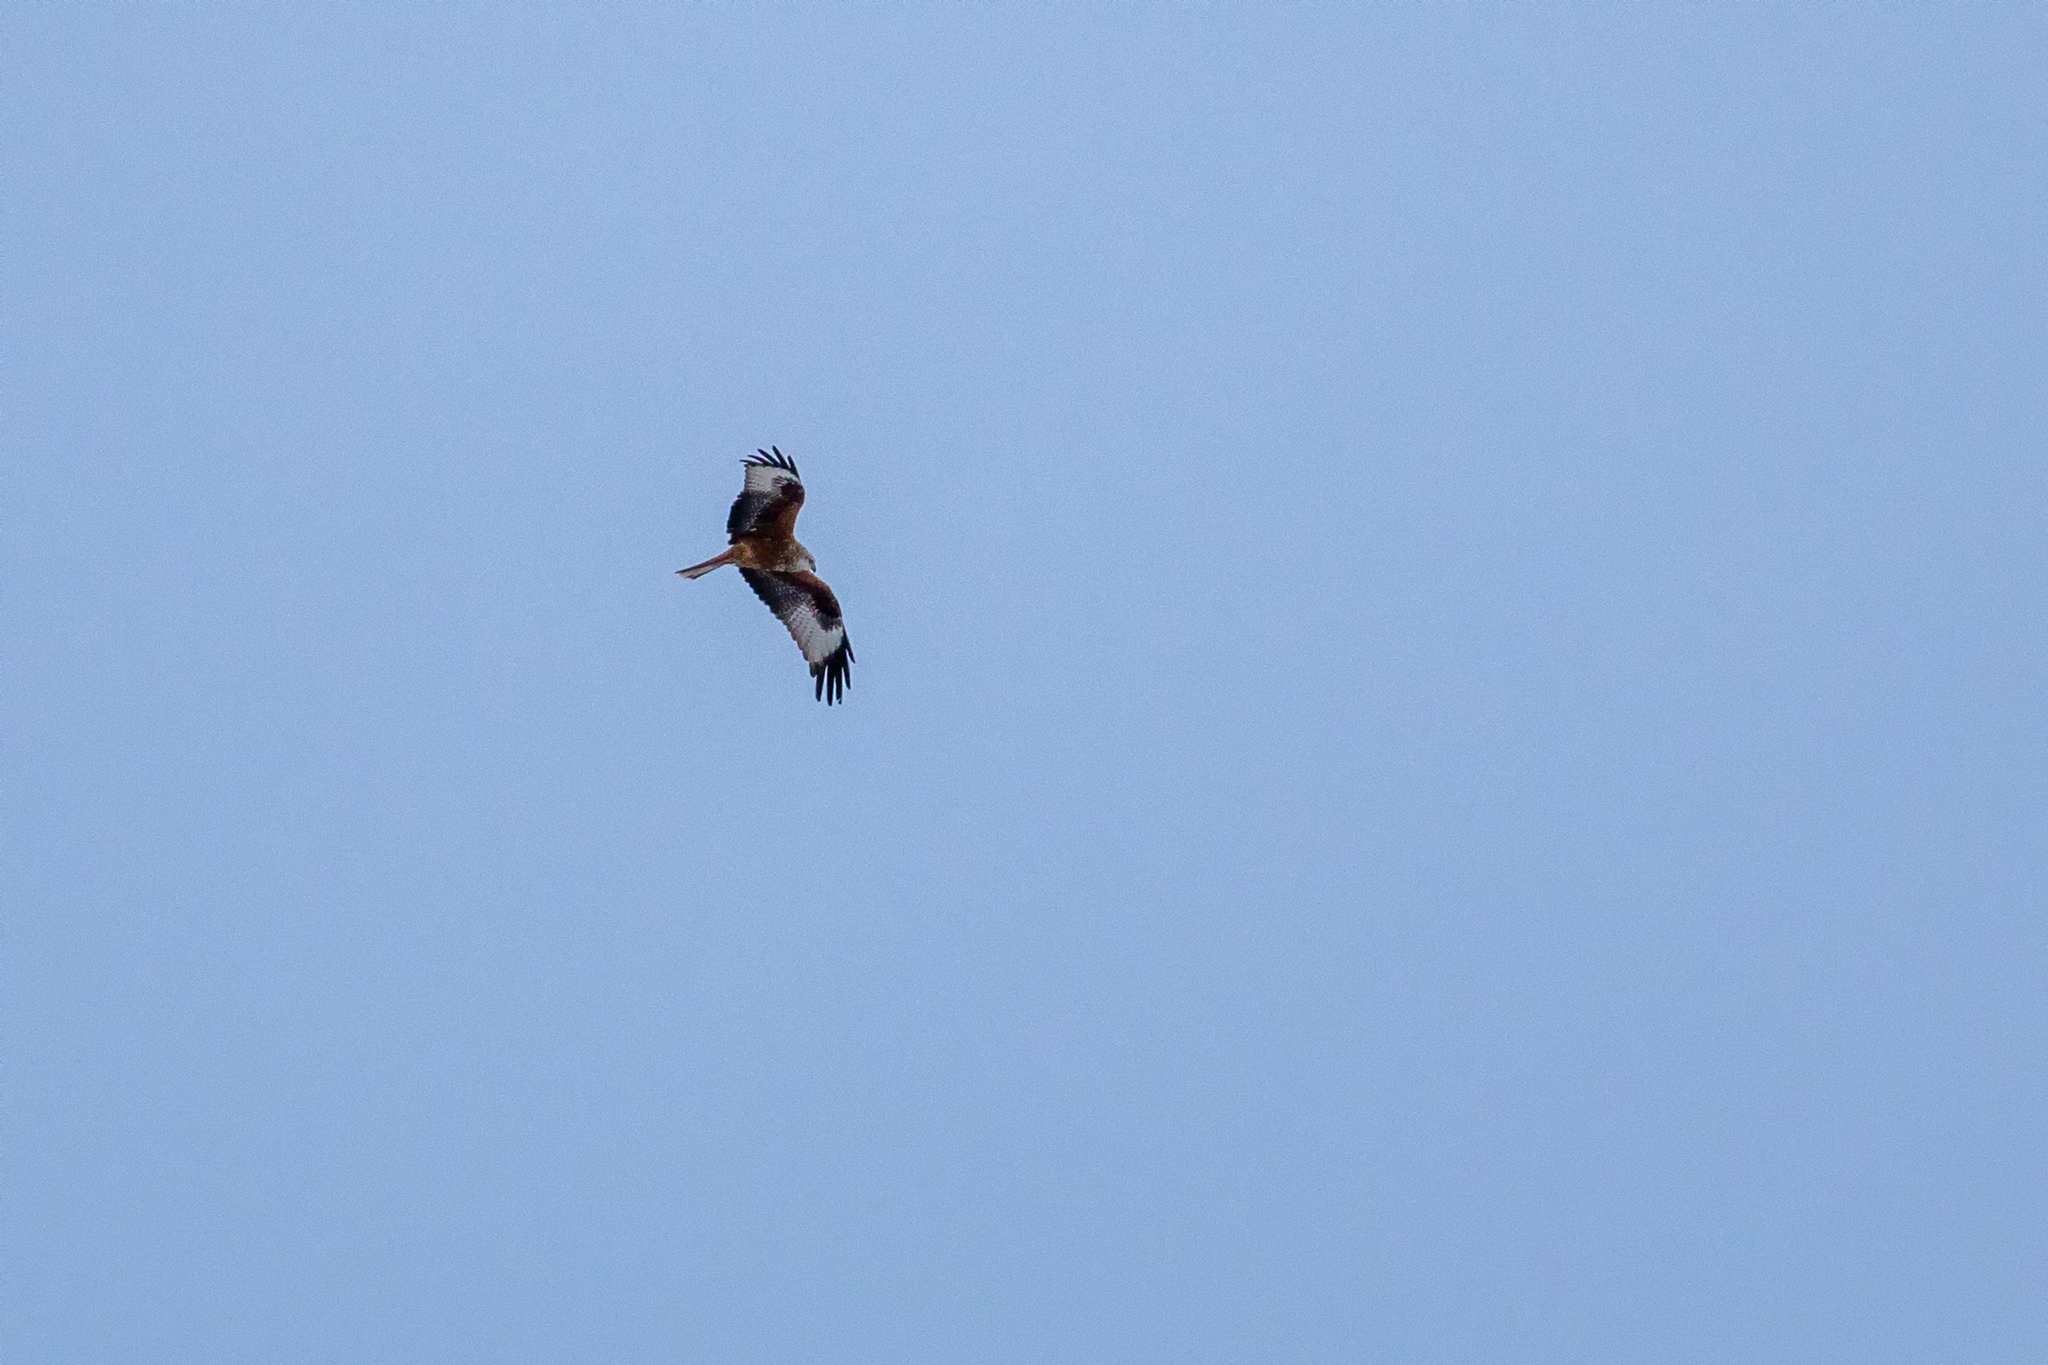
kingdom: Animalia
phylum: Chordata
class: Aves
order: Accipitriformes
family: Accipitridae
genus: Milvus
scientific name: Milvus milvus
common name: Red kite
